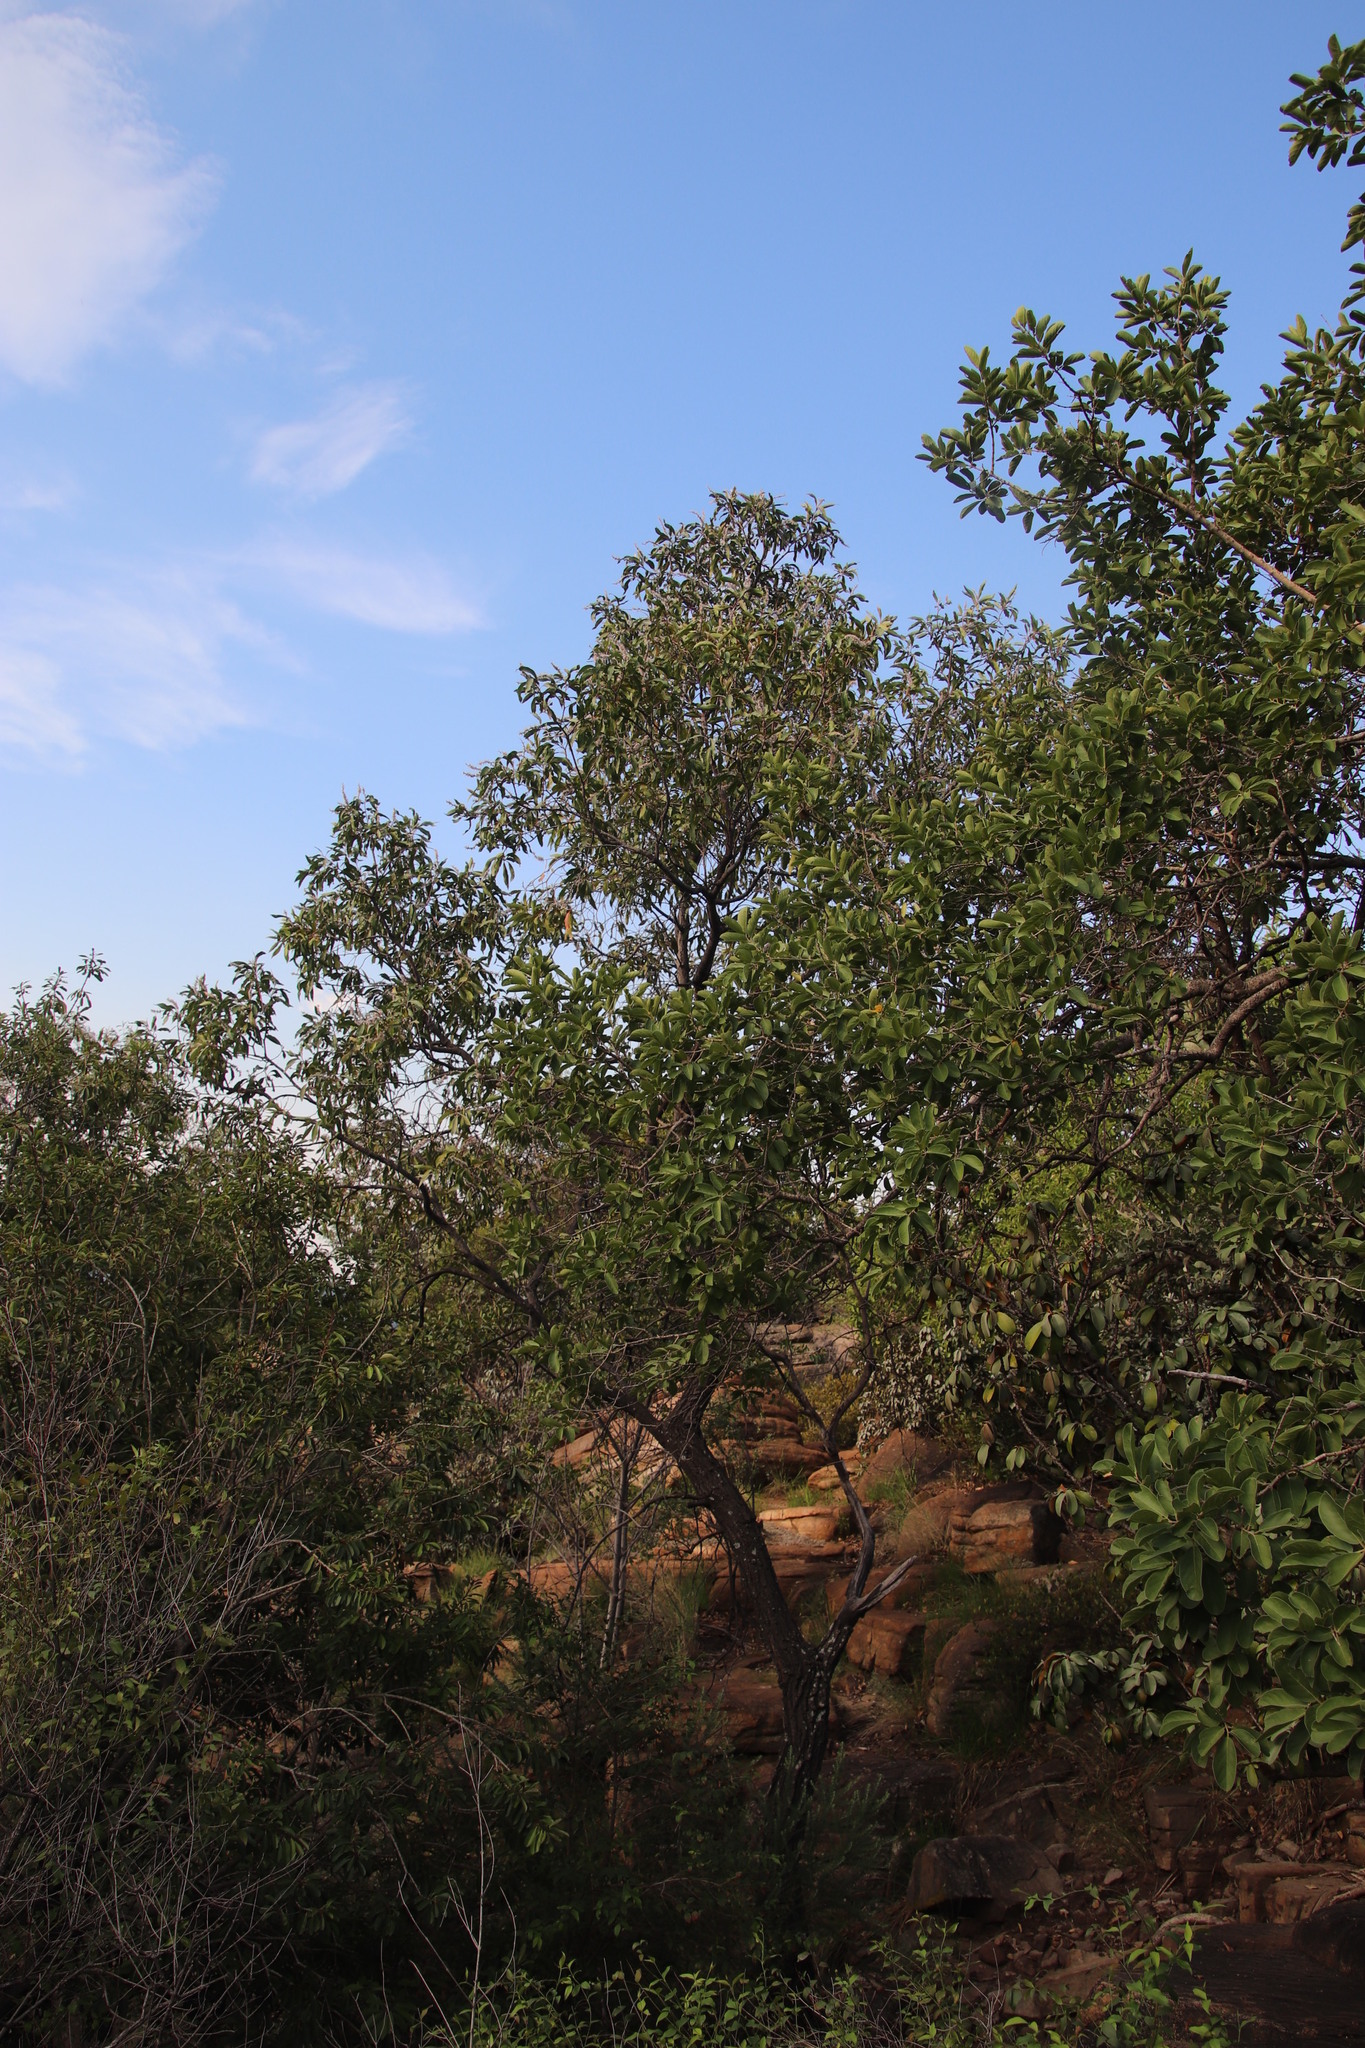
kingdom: Plantae
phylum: Tracheophyta
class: Magnoliopsida
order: Proteales
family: Proteaceae
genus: Faurea
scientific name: Faurea saligna
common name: African bean
